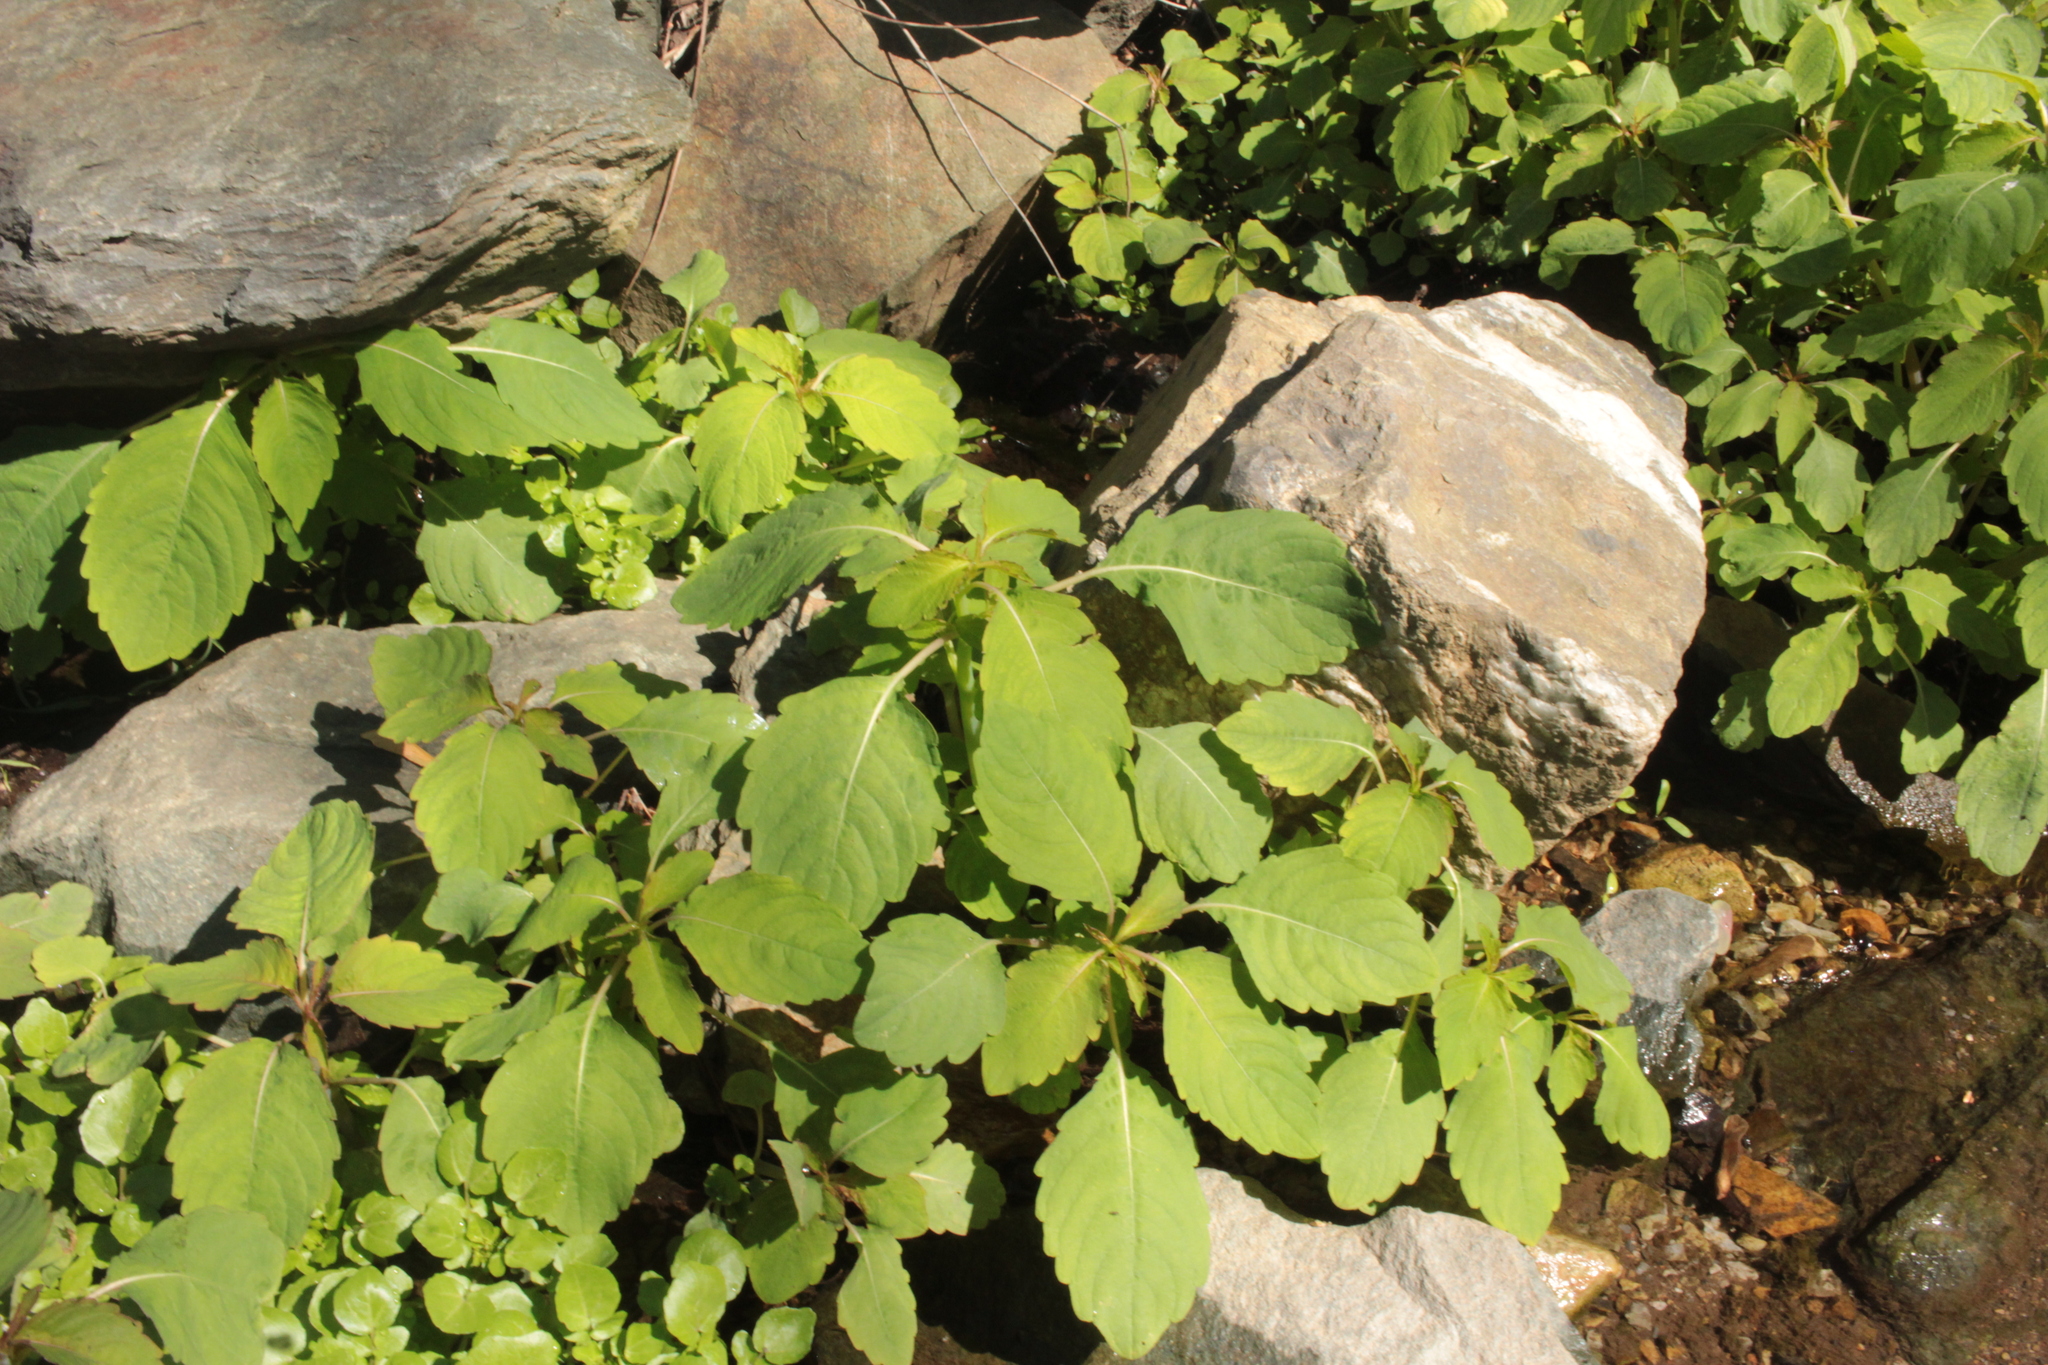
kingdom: Plantae
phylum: Tracheophyta
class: Magnoliopsida
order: Ericales
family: Balsaminaceae
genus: Impatiens
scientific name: Impatiens
